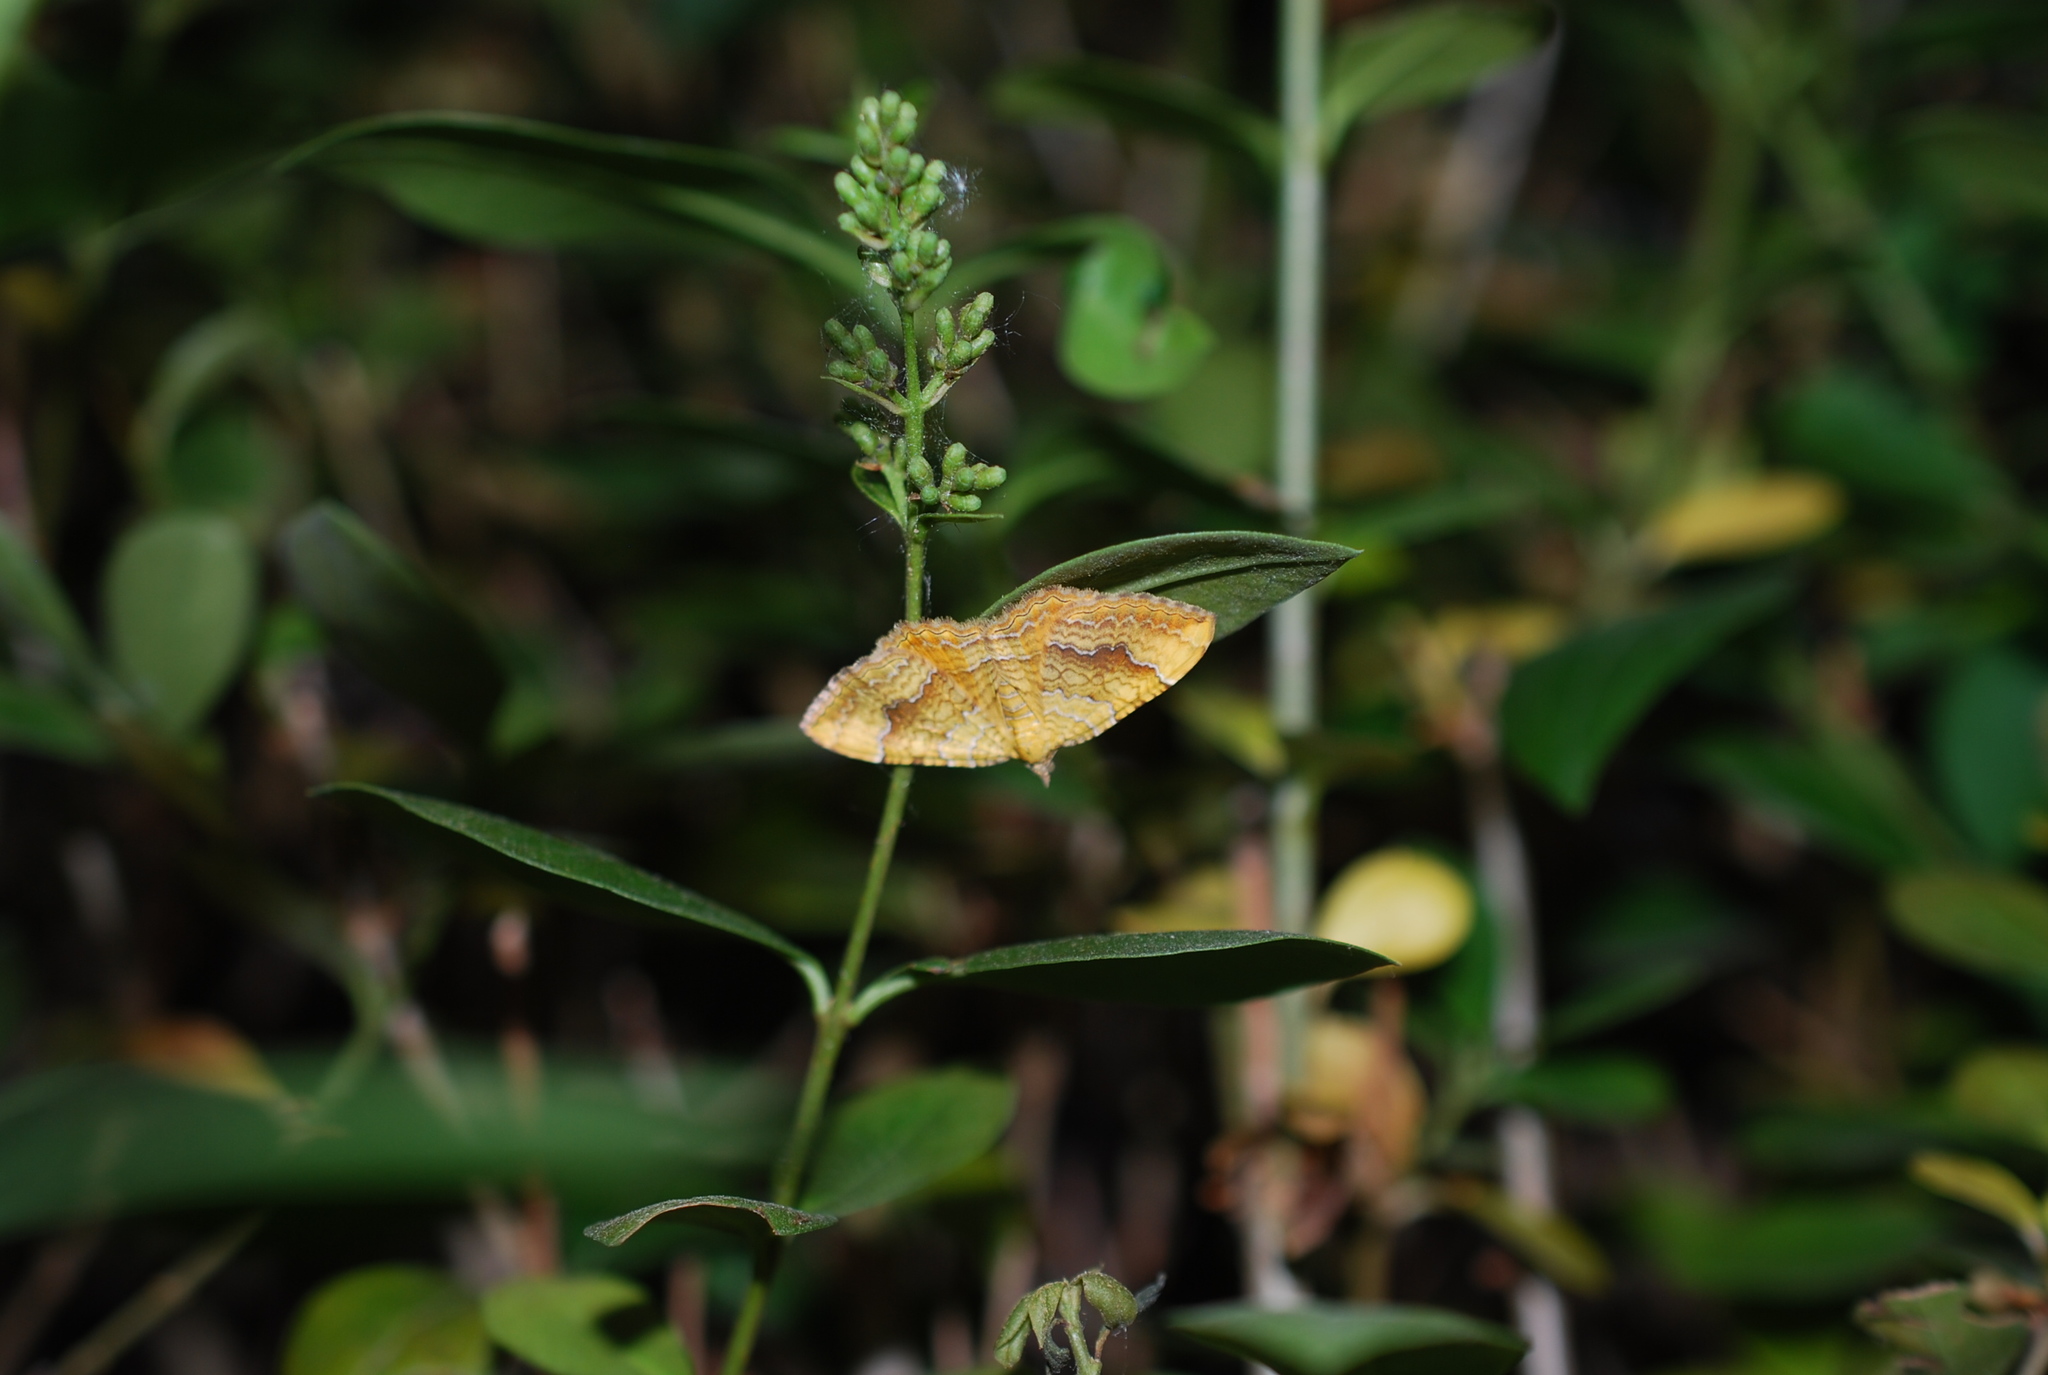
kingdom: Animalia
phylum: Arthropoda
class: Insecta
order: Lepidoptera
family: Geometridae
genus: Camptogramma
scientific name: Camptogramma bilineata
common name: Yellow shell
